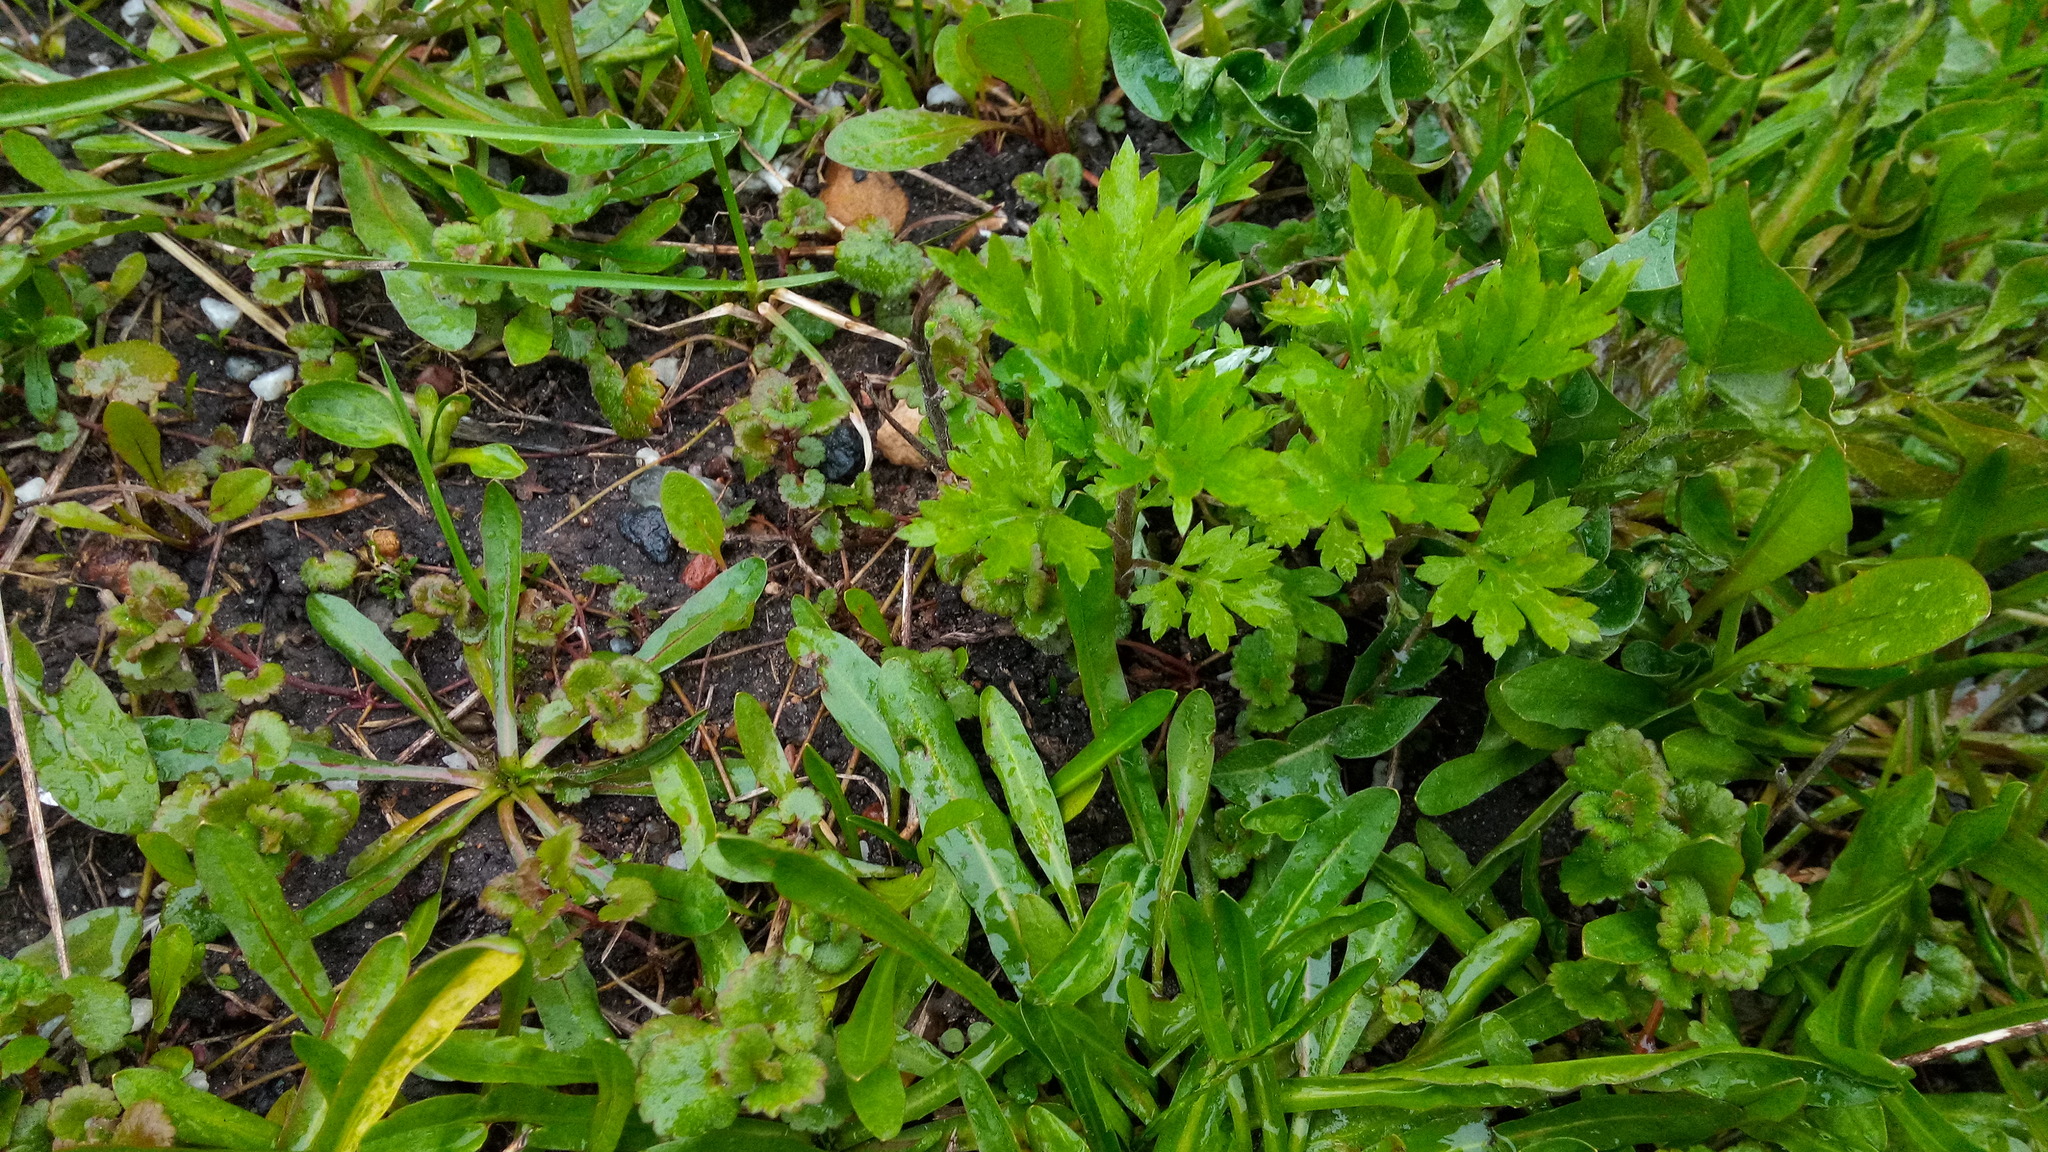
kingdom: Plantae
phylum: Tracheophyta
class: Magnoliopsida
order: Asterales
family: Asteraceae
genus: Artemisia
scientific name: Artemisia vulgaris
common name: Mugwort
